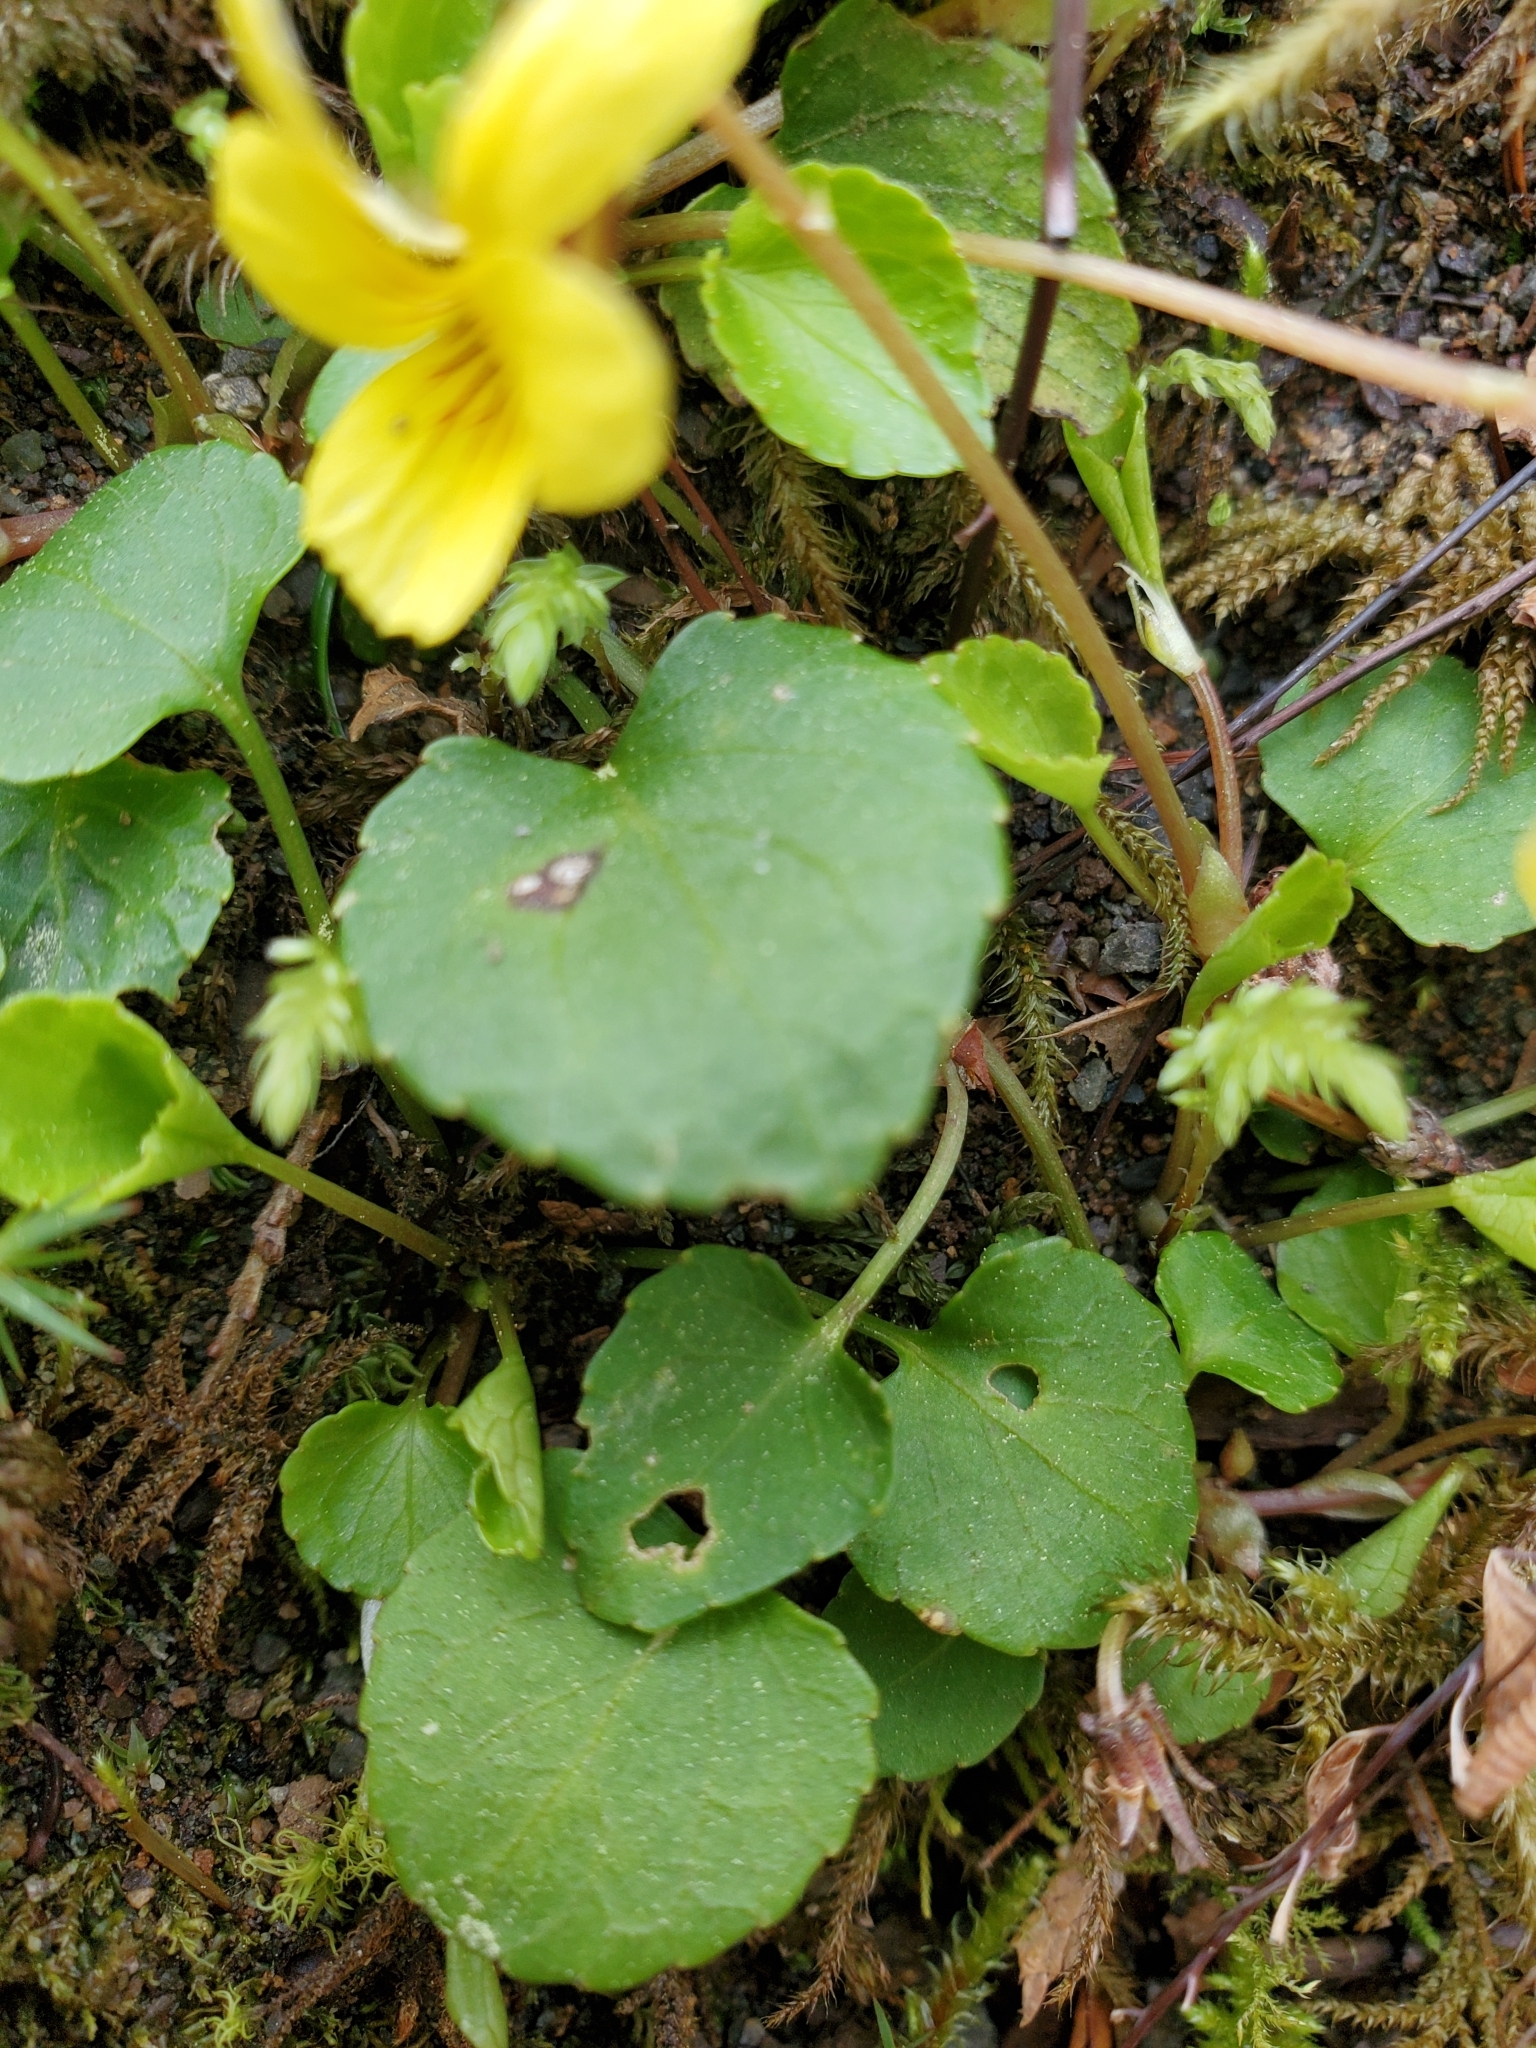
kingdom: Plantae
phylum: Tracheophyta
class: Magnoliopsida
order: Malpighiales
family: Violaceae
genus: Viola
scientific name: Viola sempervirens
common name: Evergreen violet
